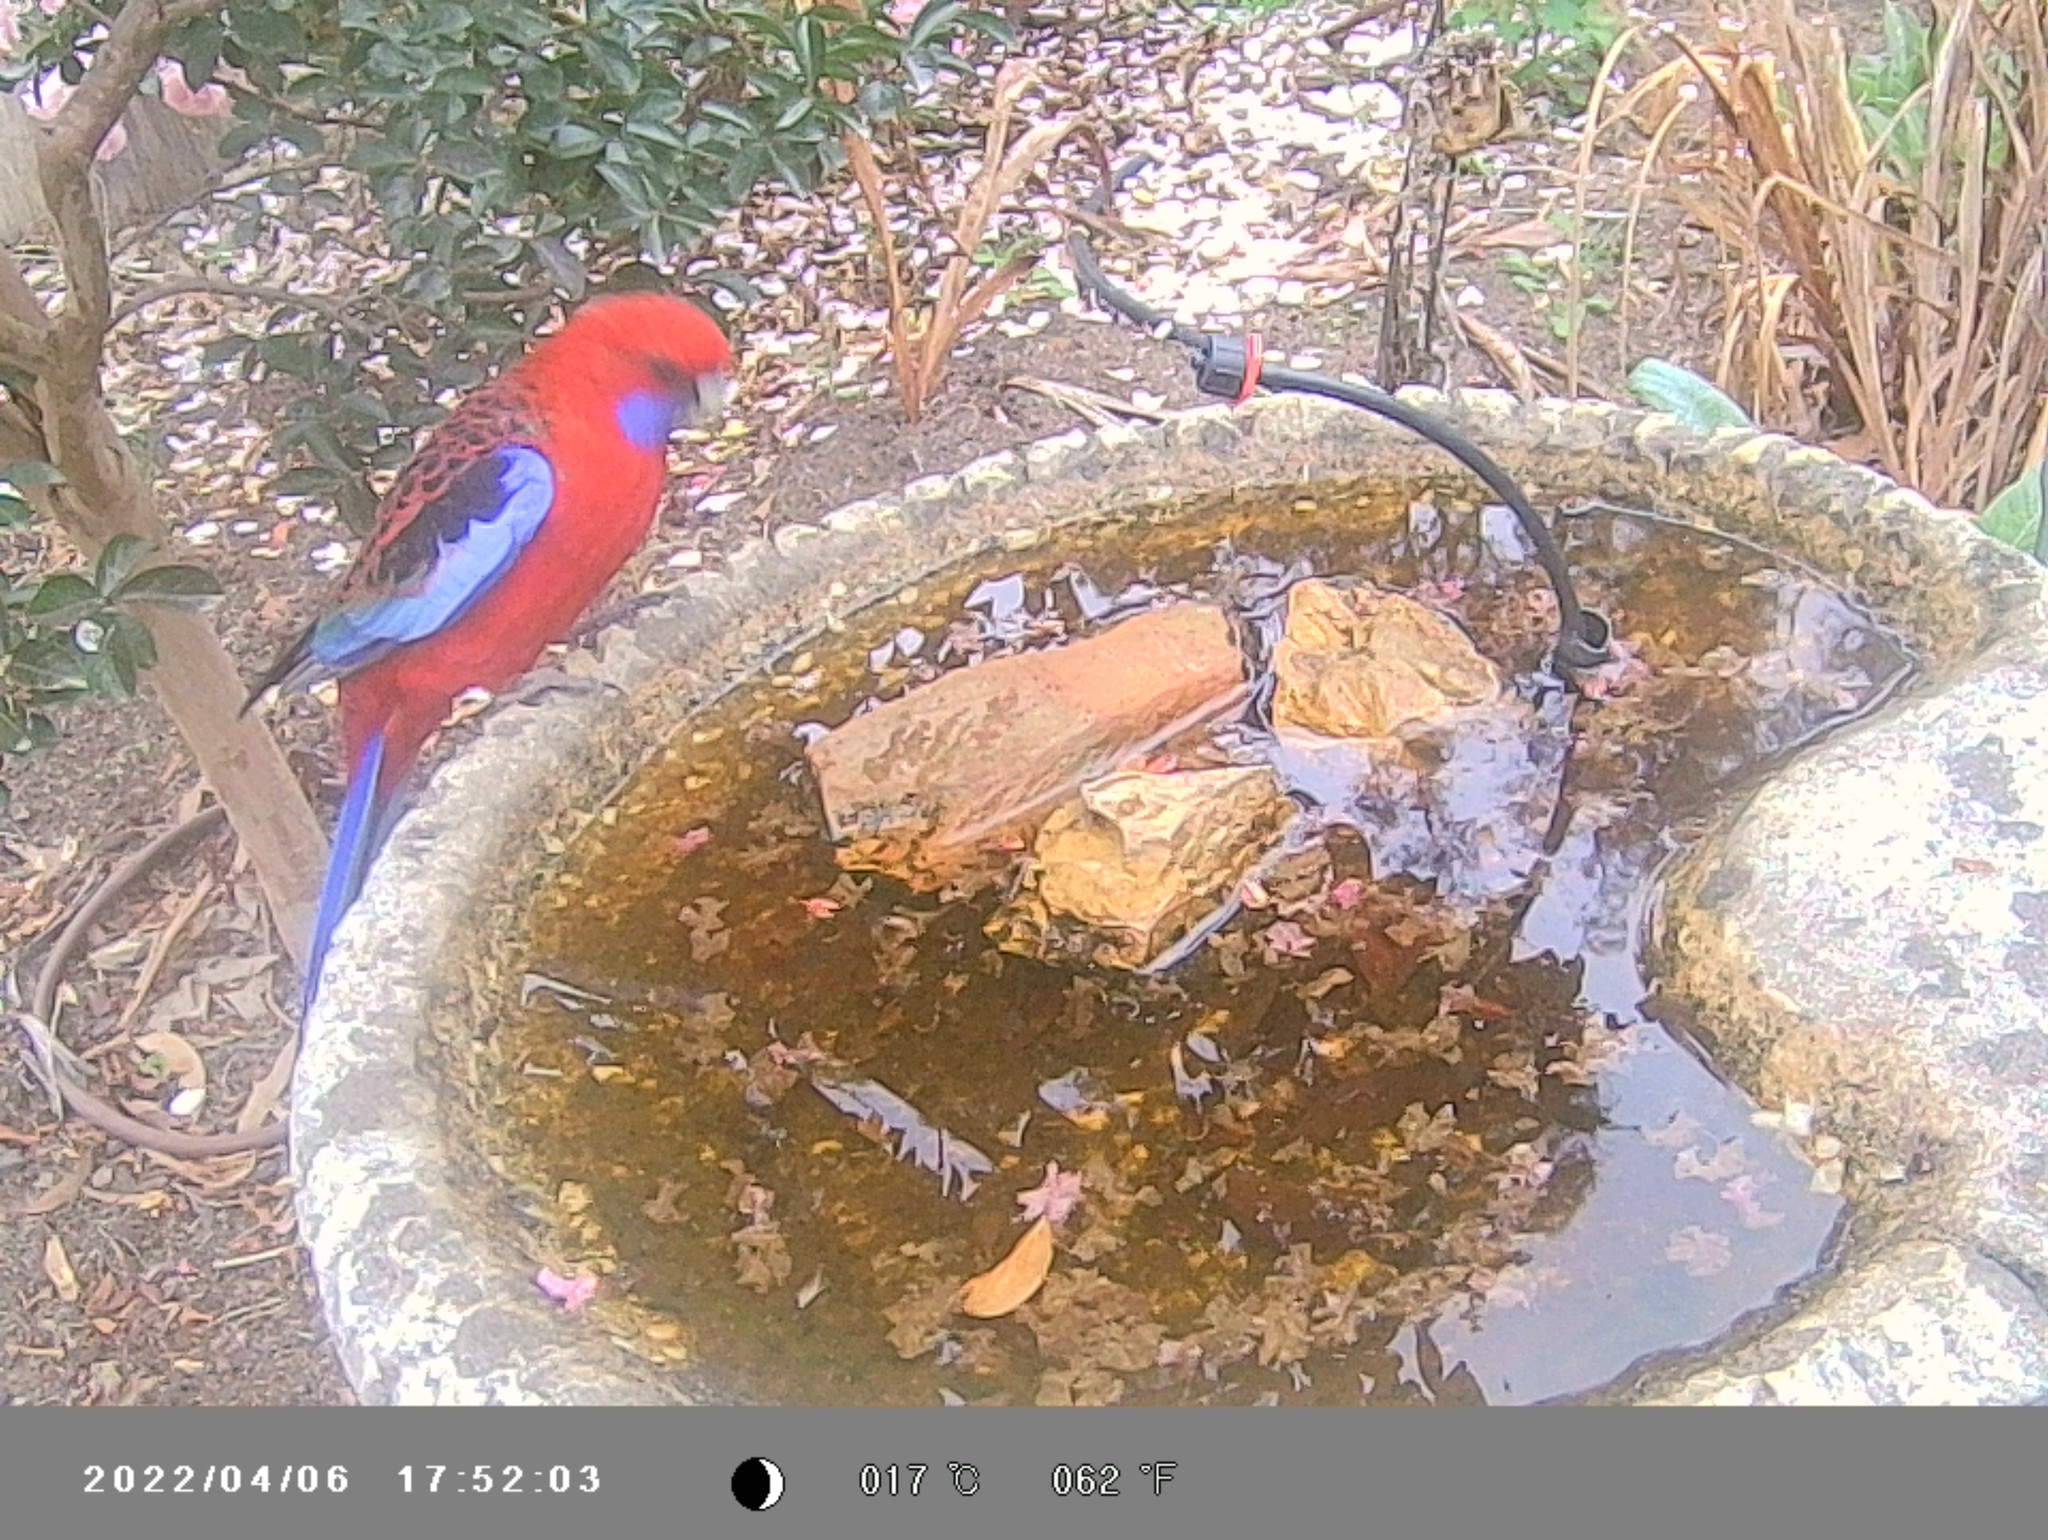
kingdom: Animalia
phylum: Chordata
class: Aves
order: Psittaciformes
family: Psittacidae
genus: Platycercus
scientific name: Platycercus elegans
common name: Crimson rosella
